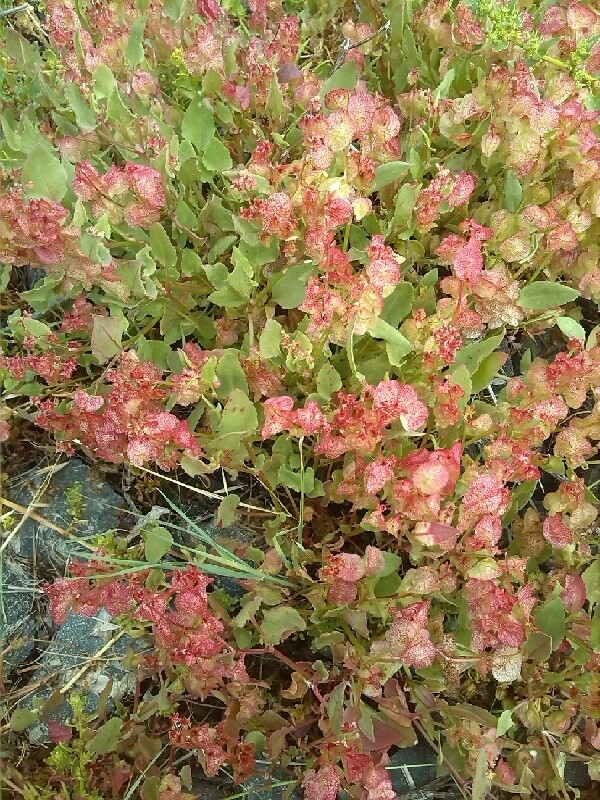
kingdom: Plantae
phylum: Tracheophyta
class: Magnoliopsida
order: Caryophyllales
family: Polygonaceae
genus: Rumex
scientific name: Rumex vesicarius
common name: Bladder dock
